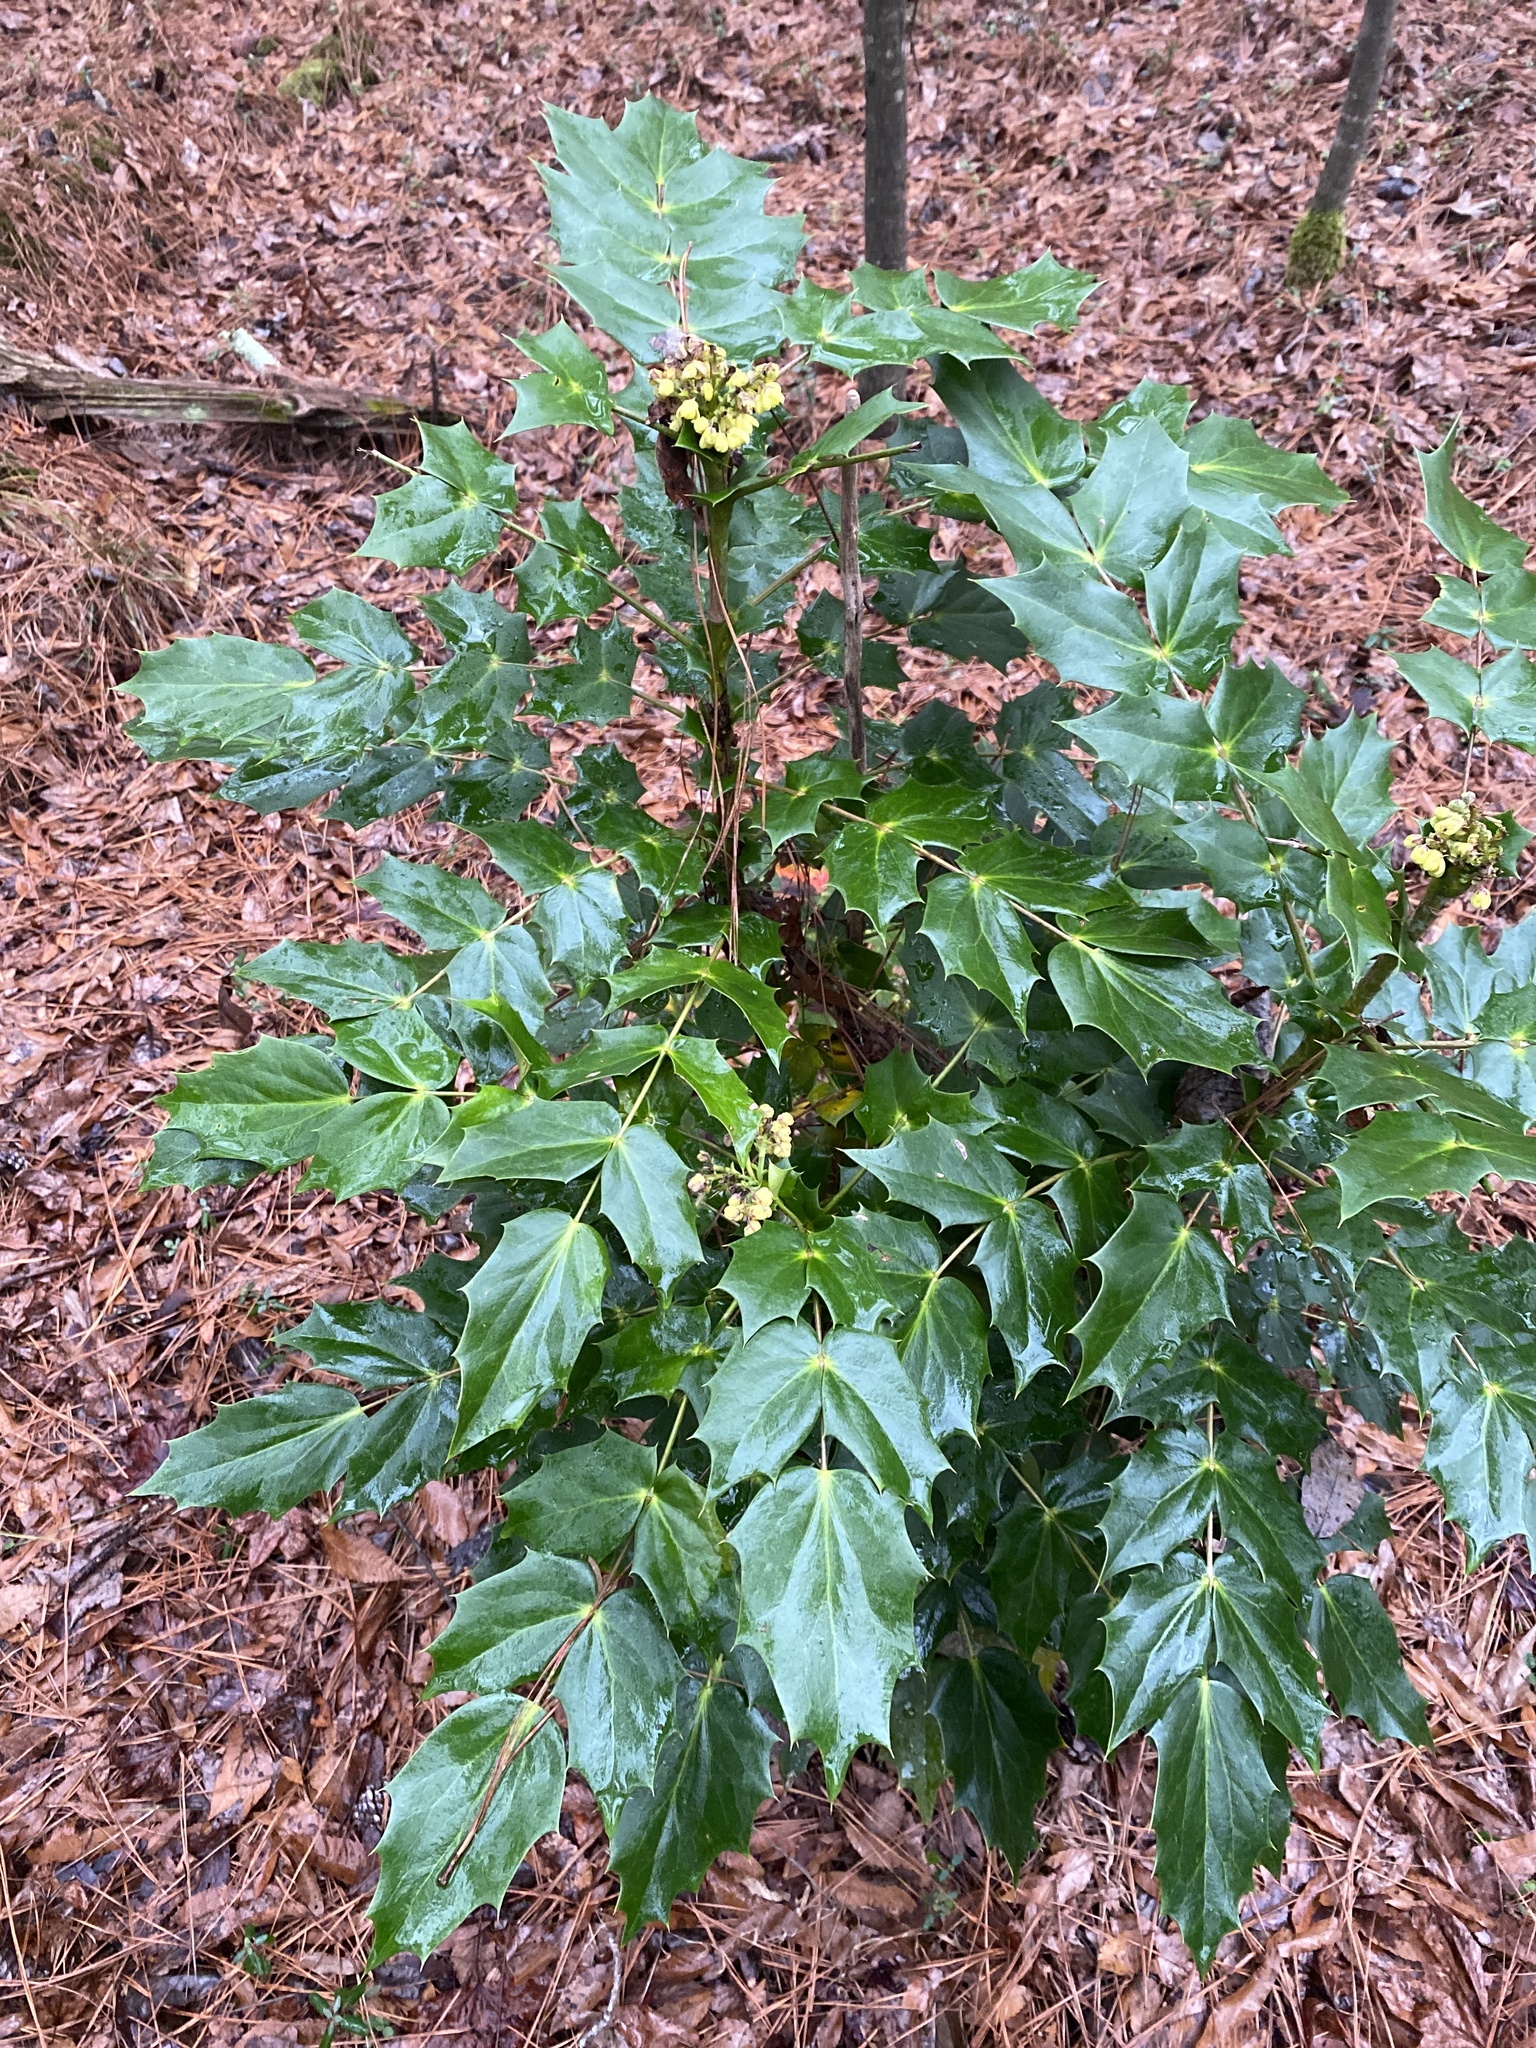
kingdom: Plantae
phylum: Tracheophyta
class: Magnoliopsida
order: Ranunculales
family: Berberidaceae
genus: Mahonia
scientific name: Mahonia bealei
